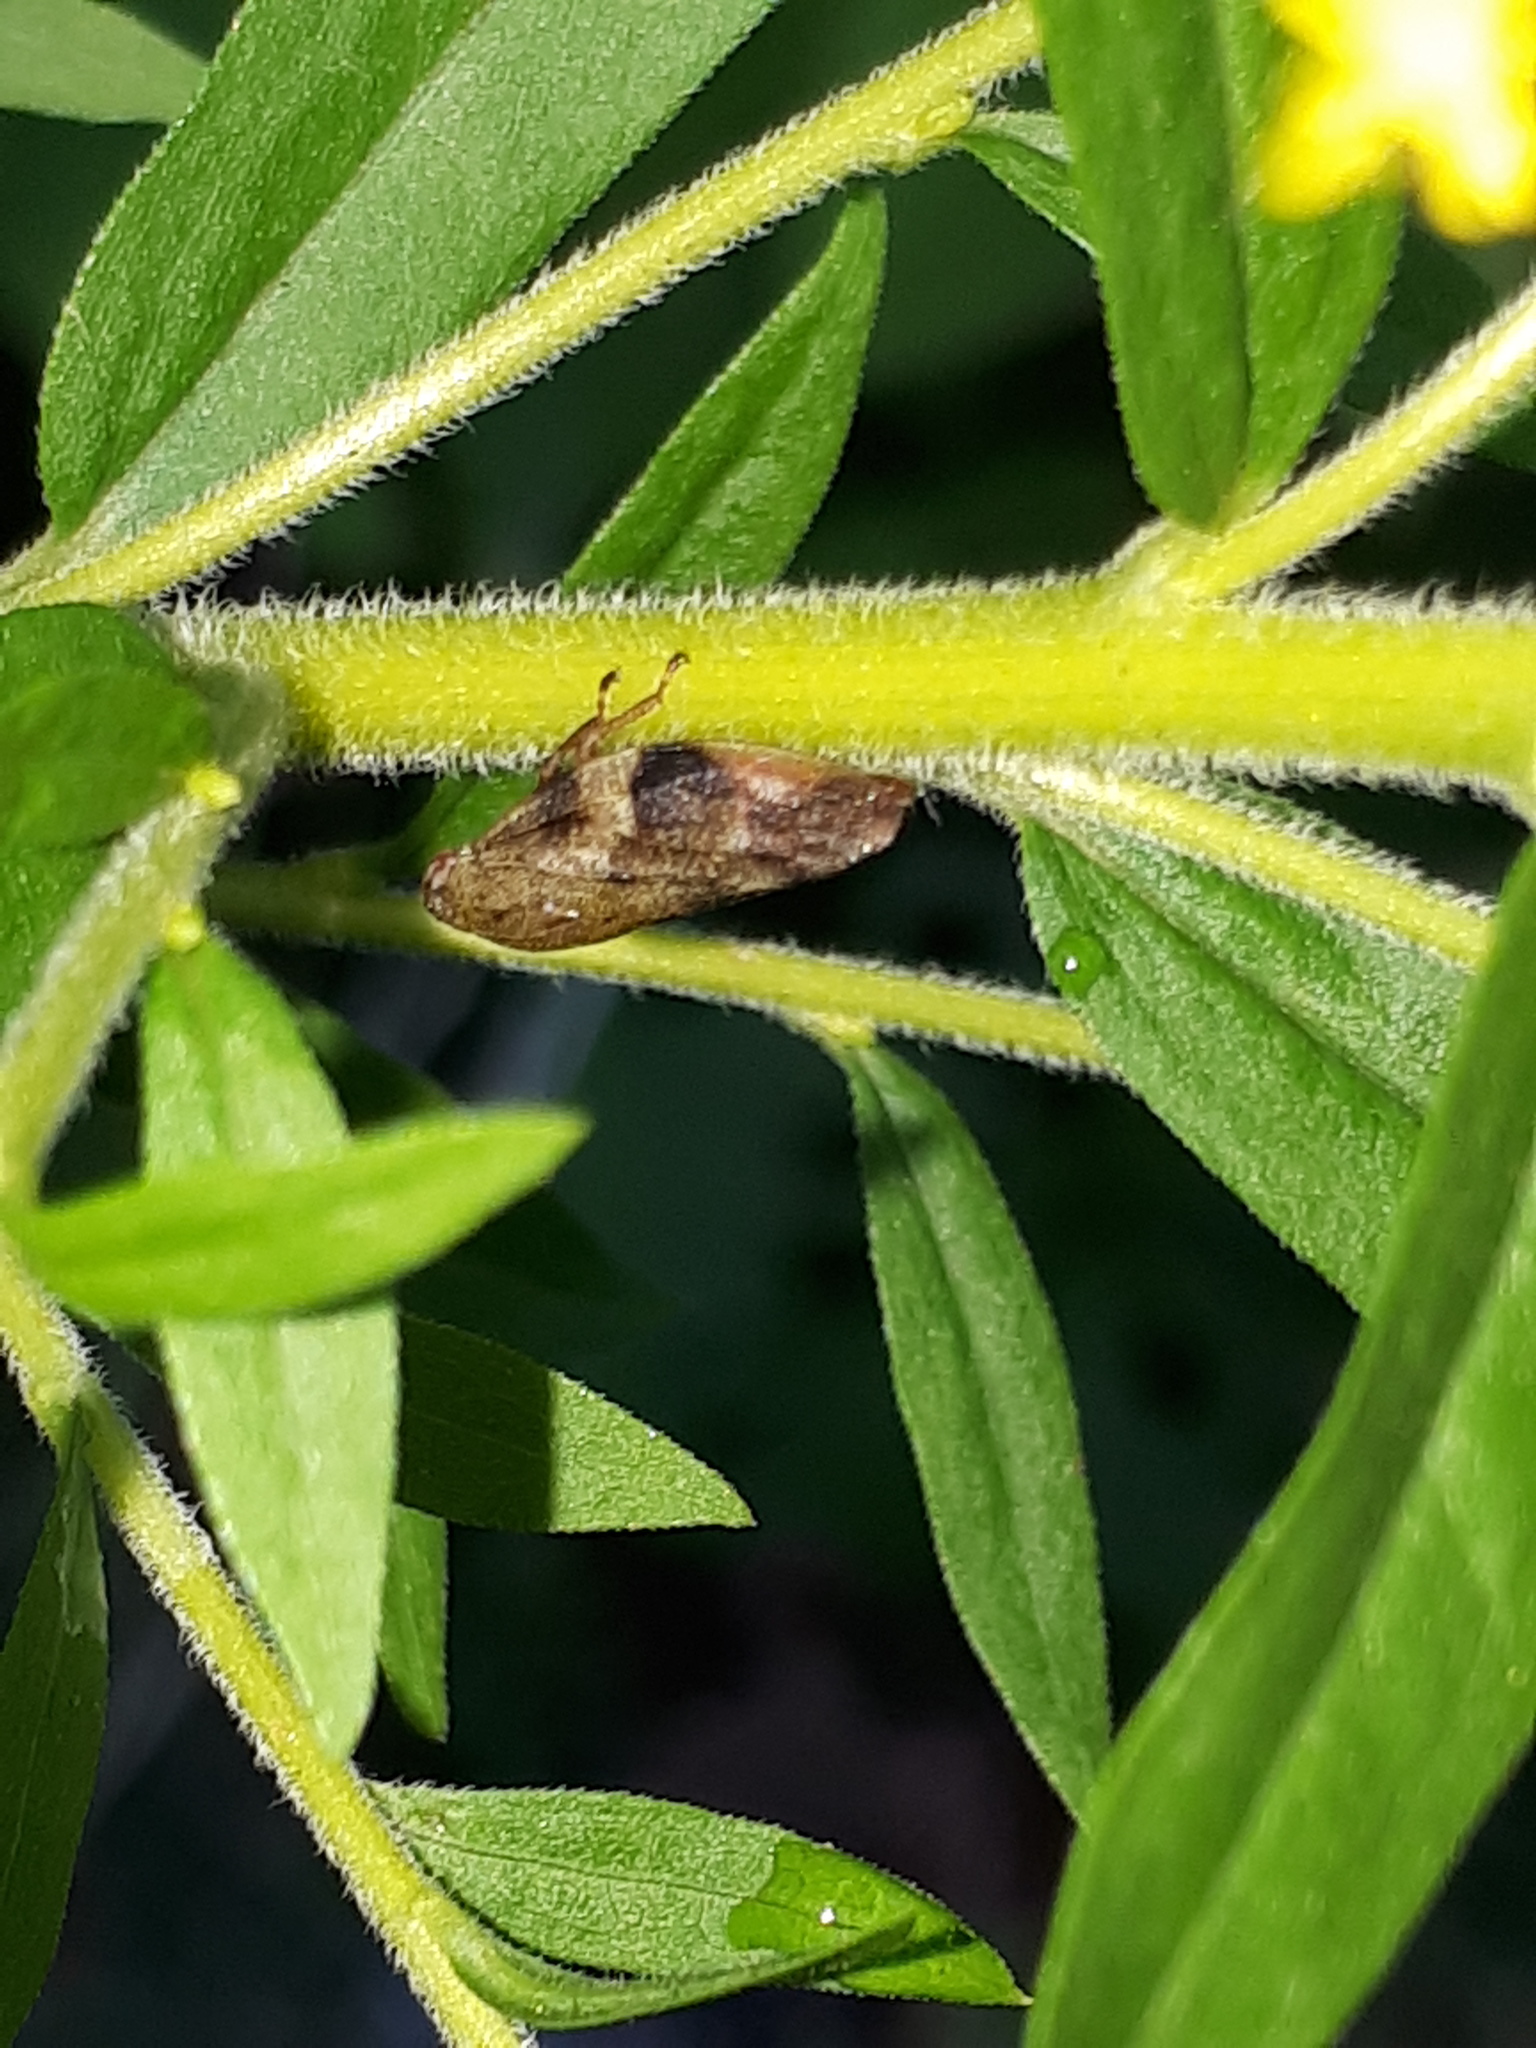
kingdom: Animalia
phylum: Arthropoda
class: Insecta
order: Hemiptera
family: Aphrophoridae
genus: Aphrophora
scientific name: Aphrophora alni
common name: European alder spittlebug
